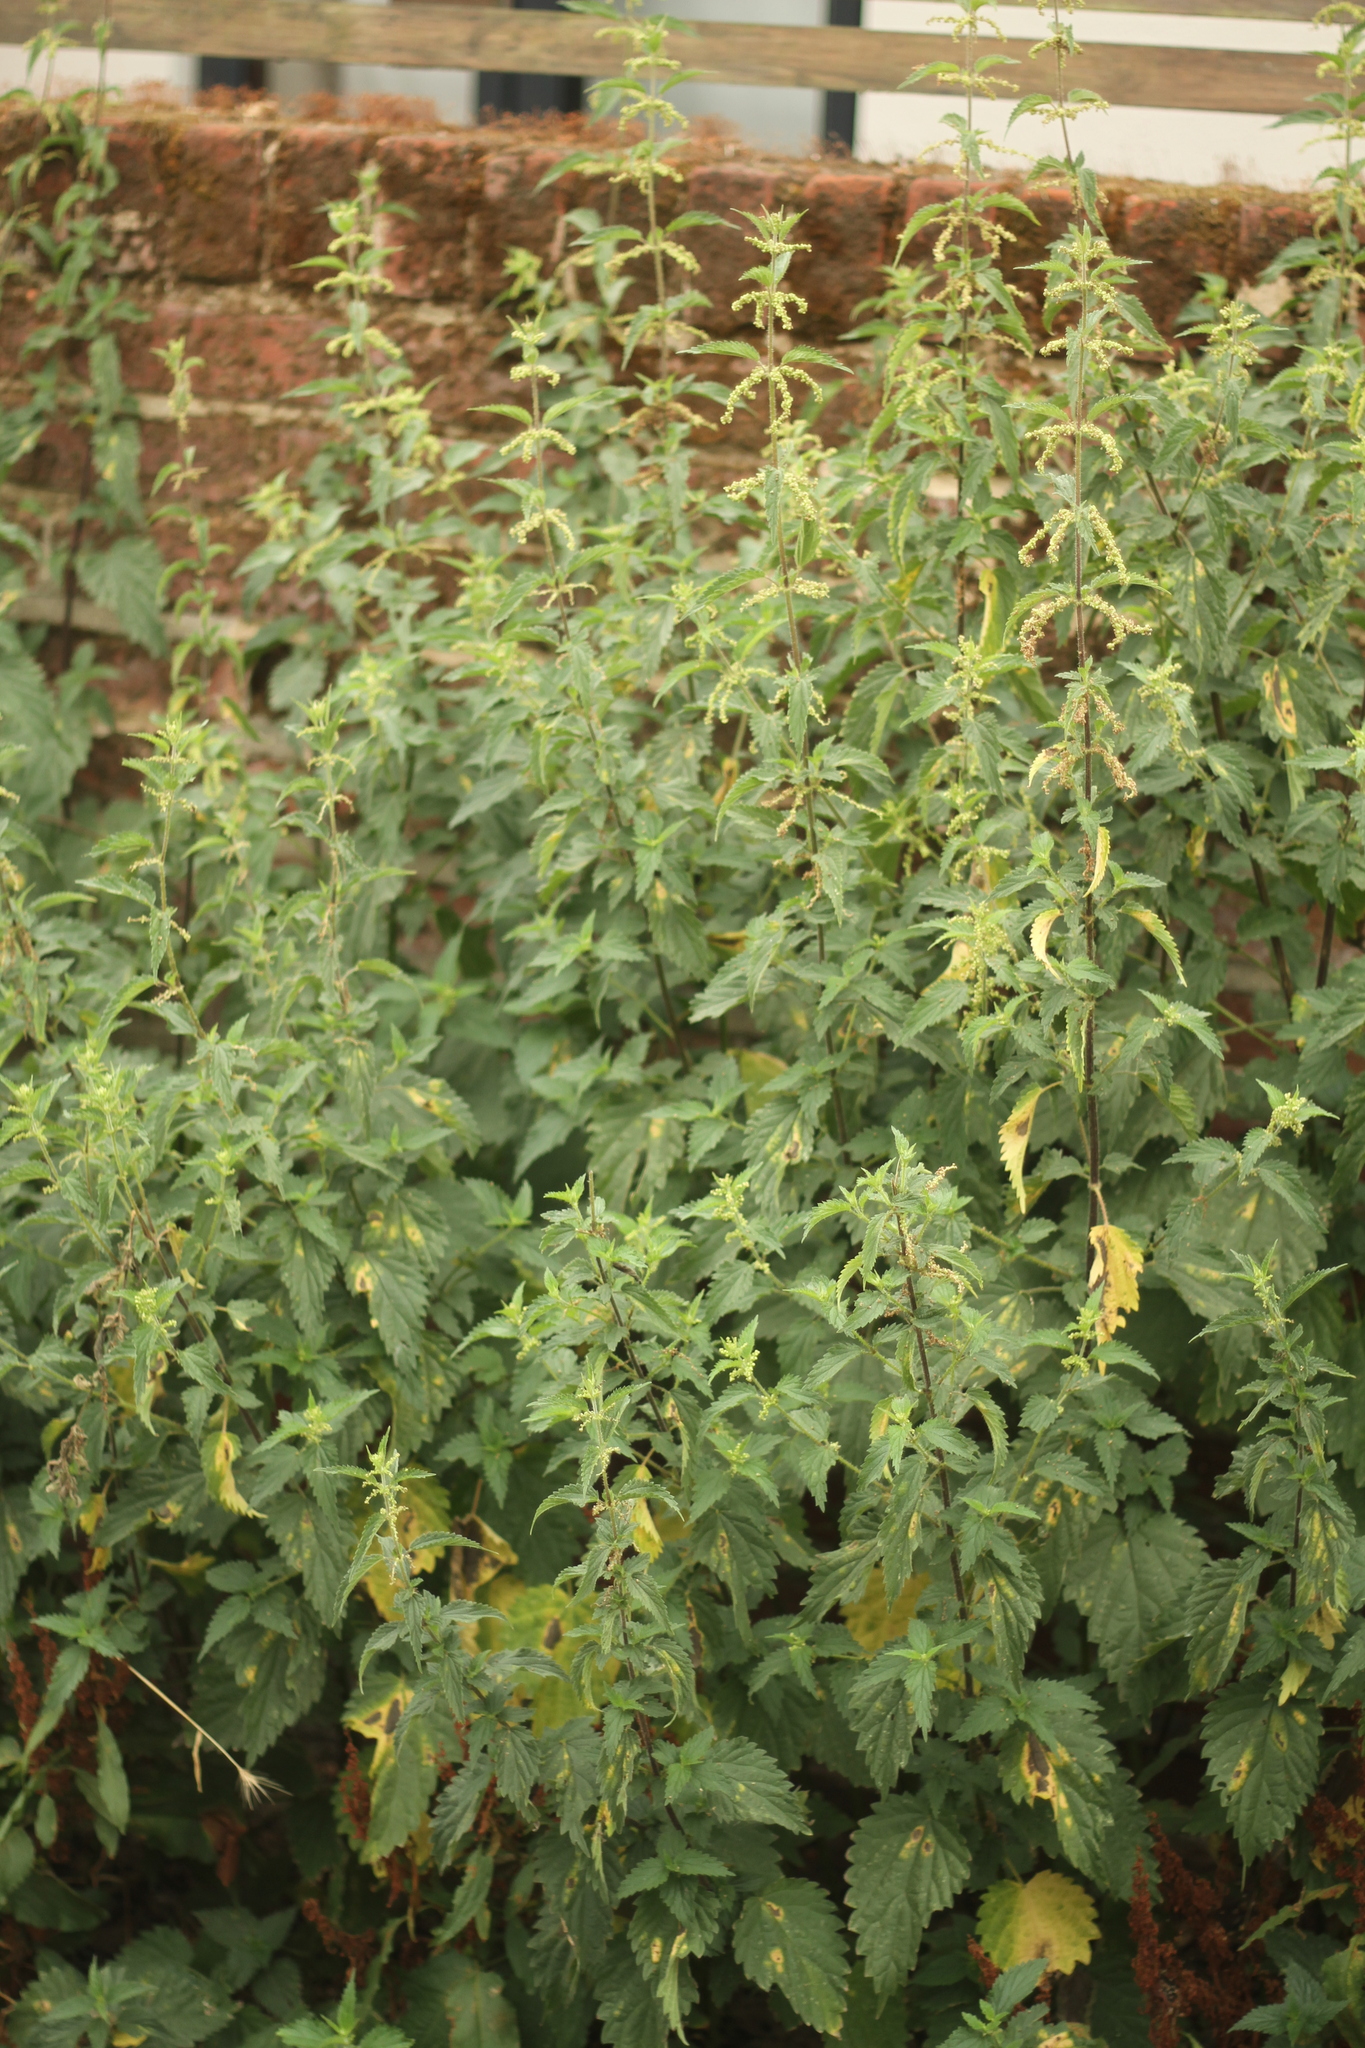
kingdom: Plantae
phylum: Tracheophyta
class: Magnoliopsida
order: Rosales
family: Urticaceae
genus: Urtica
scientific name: Urtica dioica
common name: Common nettle
